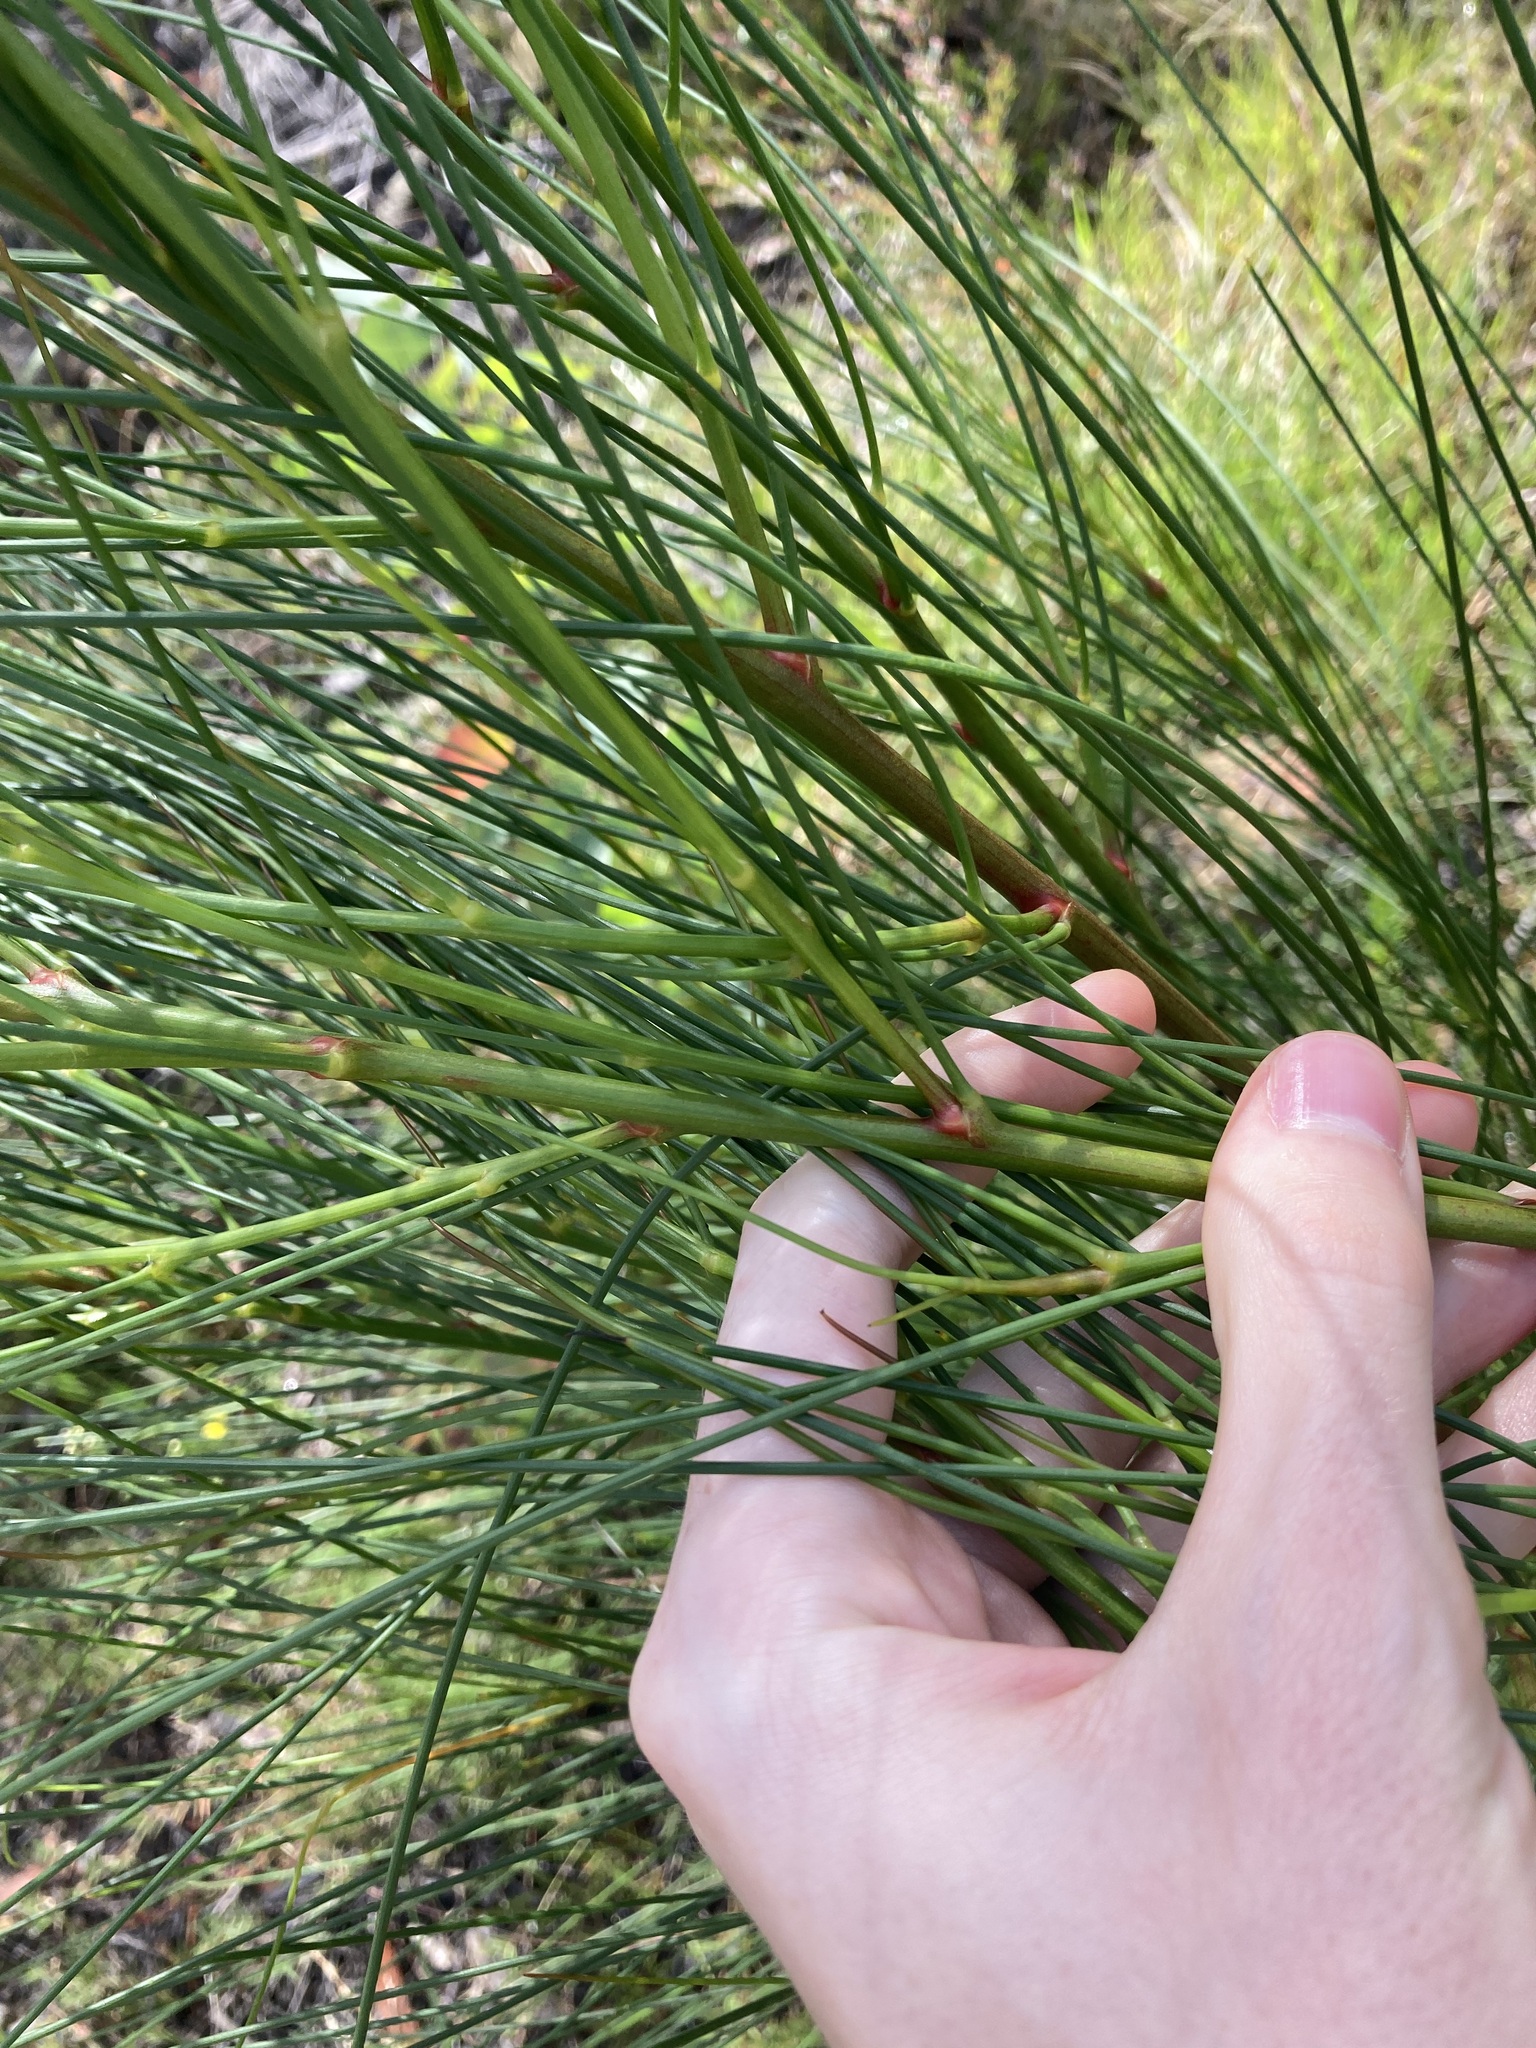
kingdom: Plantae
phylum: Tracheophyta
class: Magnoliopsida
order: Fabales
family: Fabaceae
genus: Viminaria
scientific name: Viminaria juncea
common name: Golden spray
